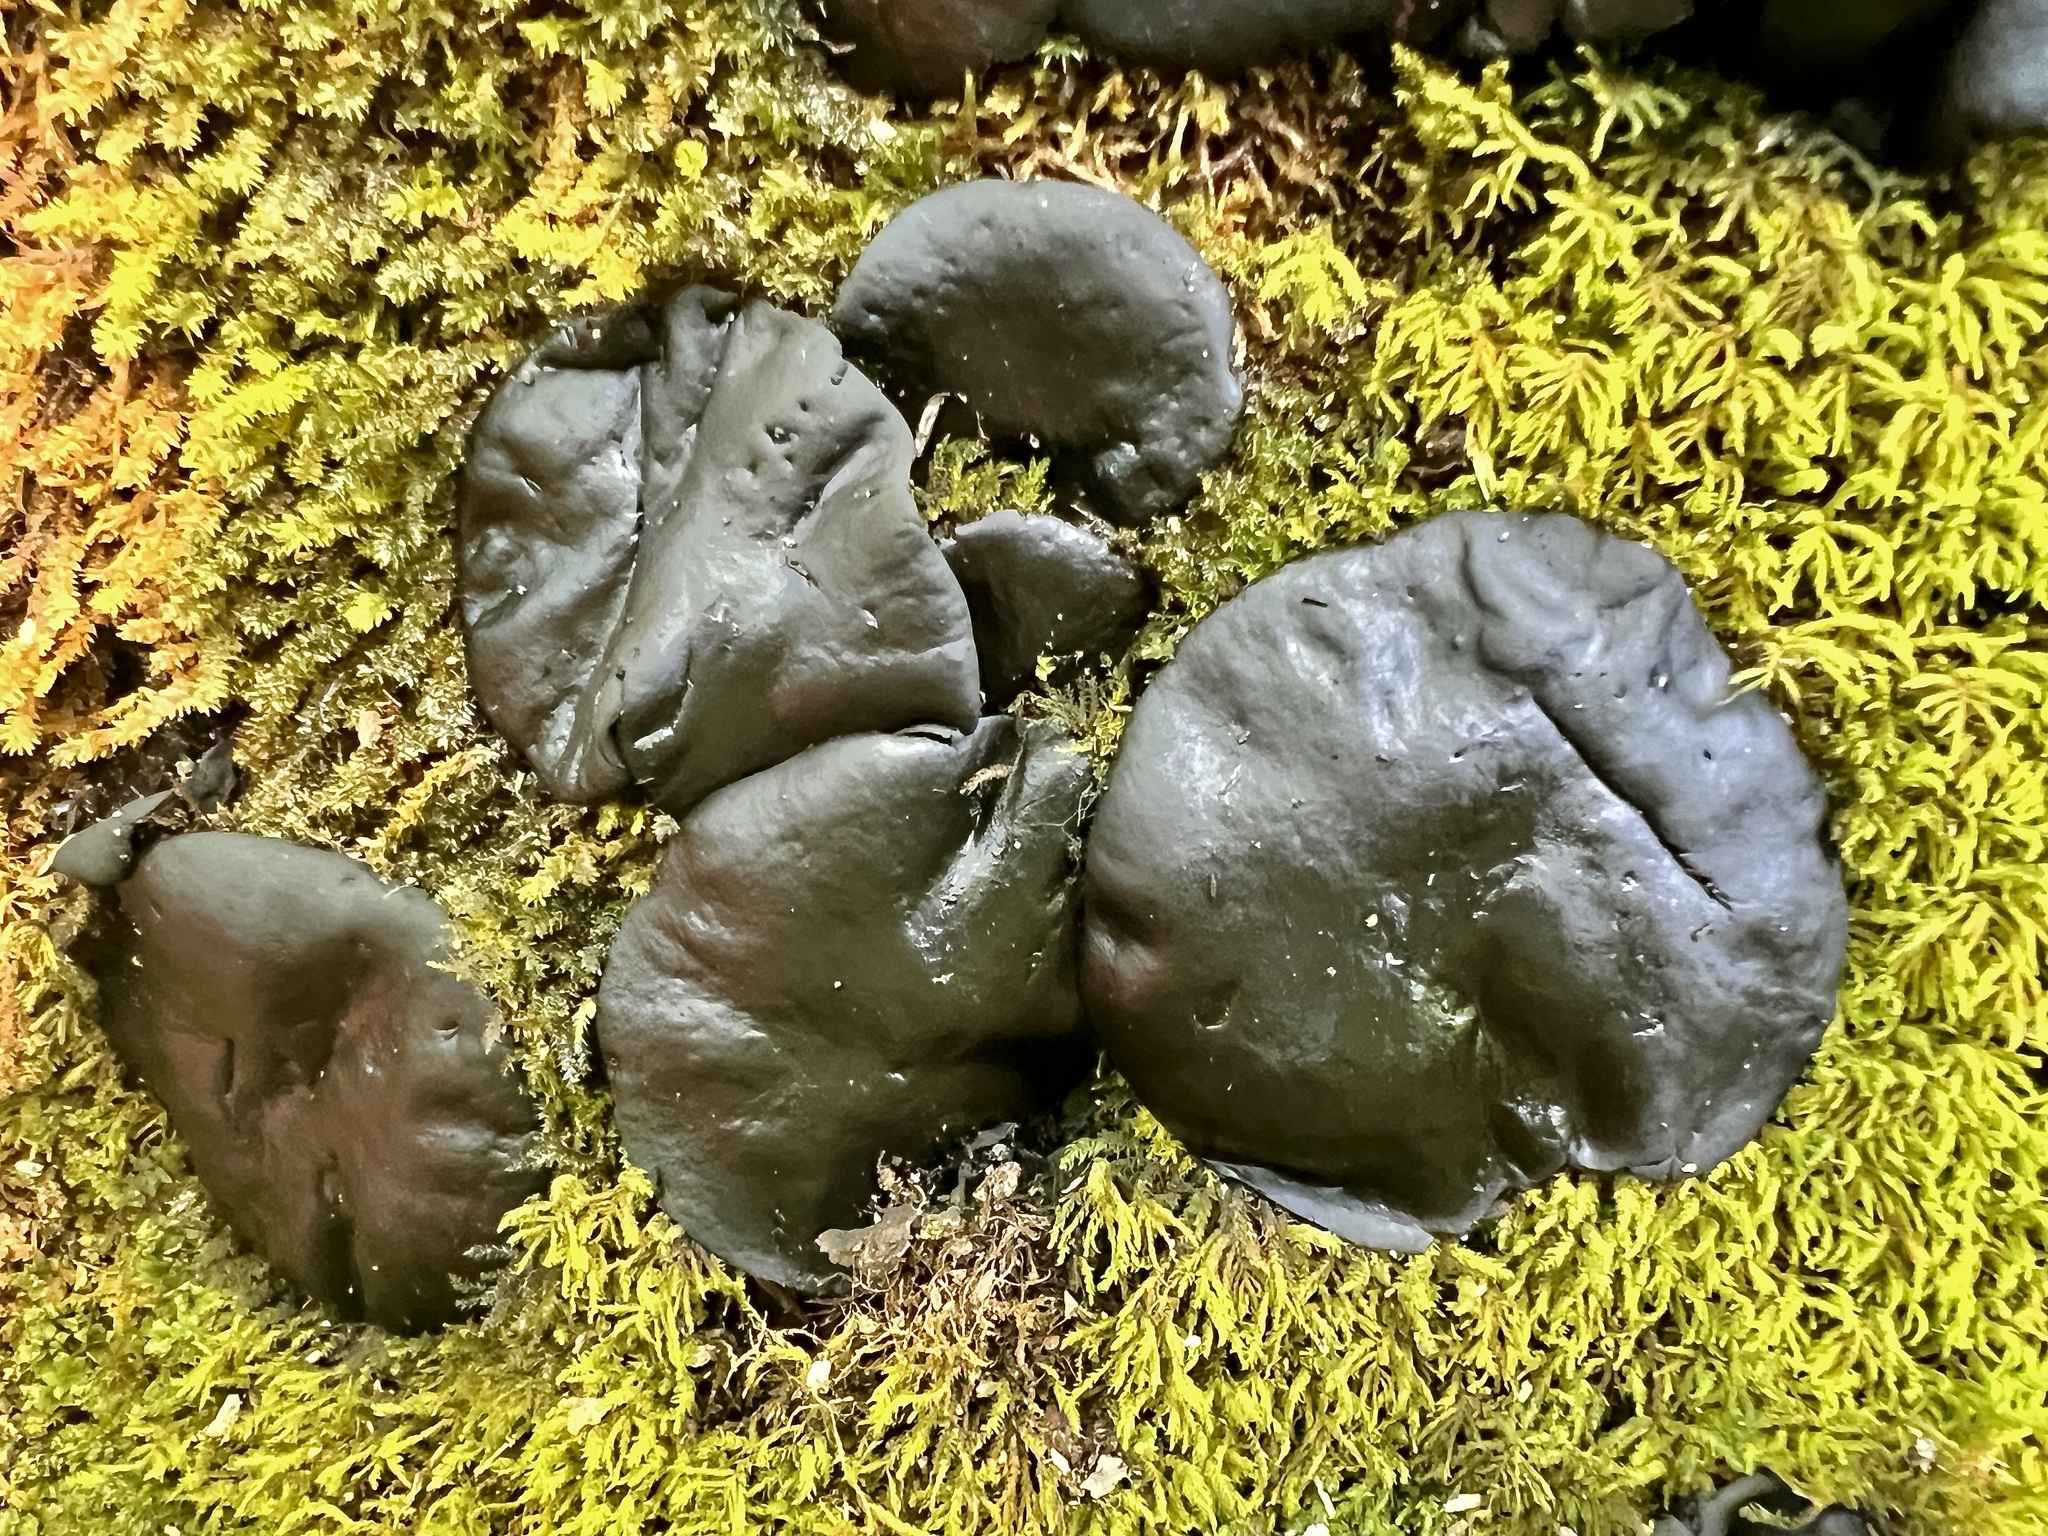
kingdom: Fungi
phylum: Ascomycota
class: Leotiomycetes
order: Phacidiales
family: Phacidiaceae
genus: Bulgaria
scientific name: Bulgaria inquinans
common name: Black bulgar
